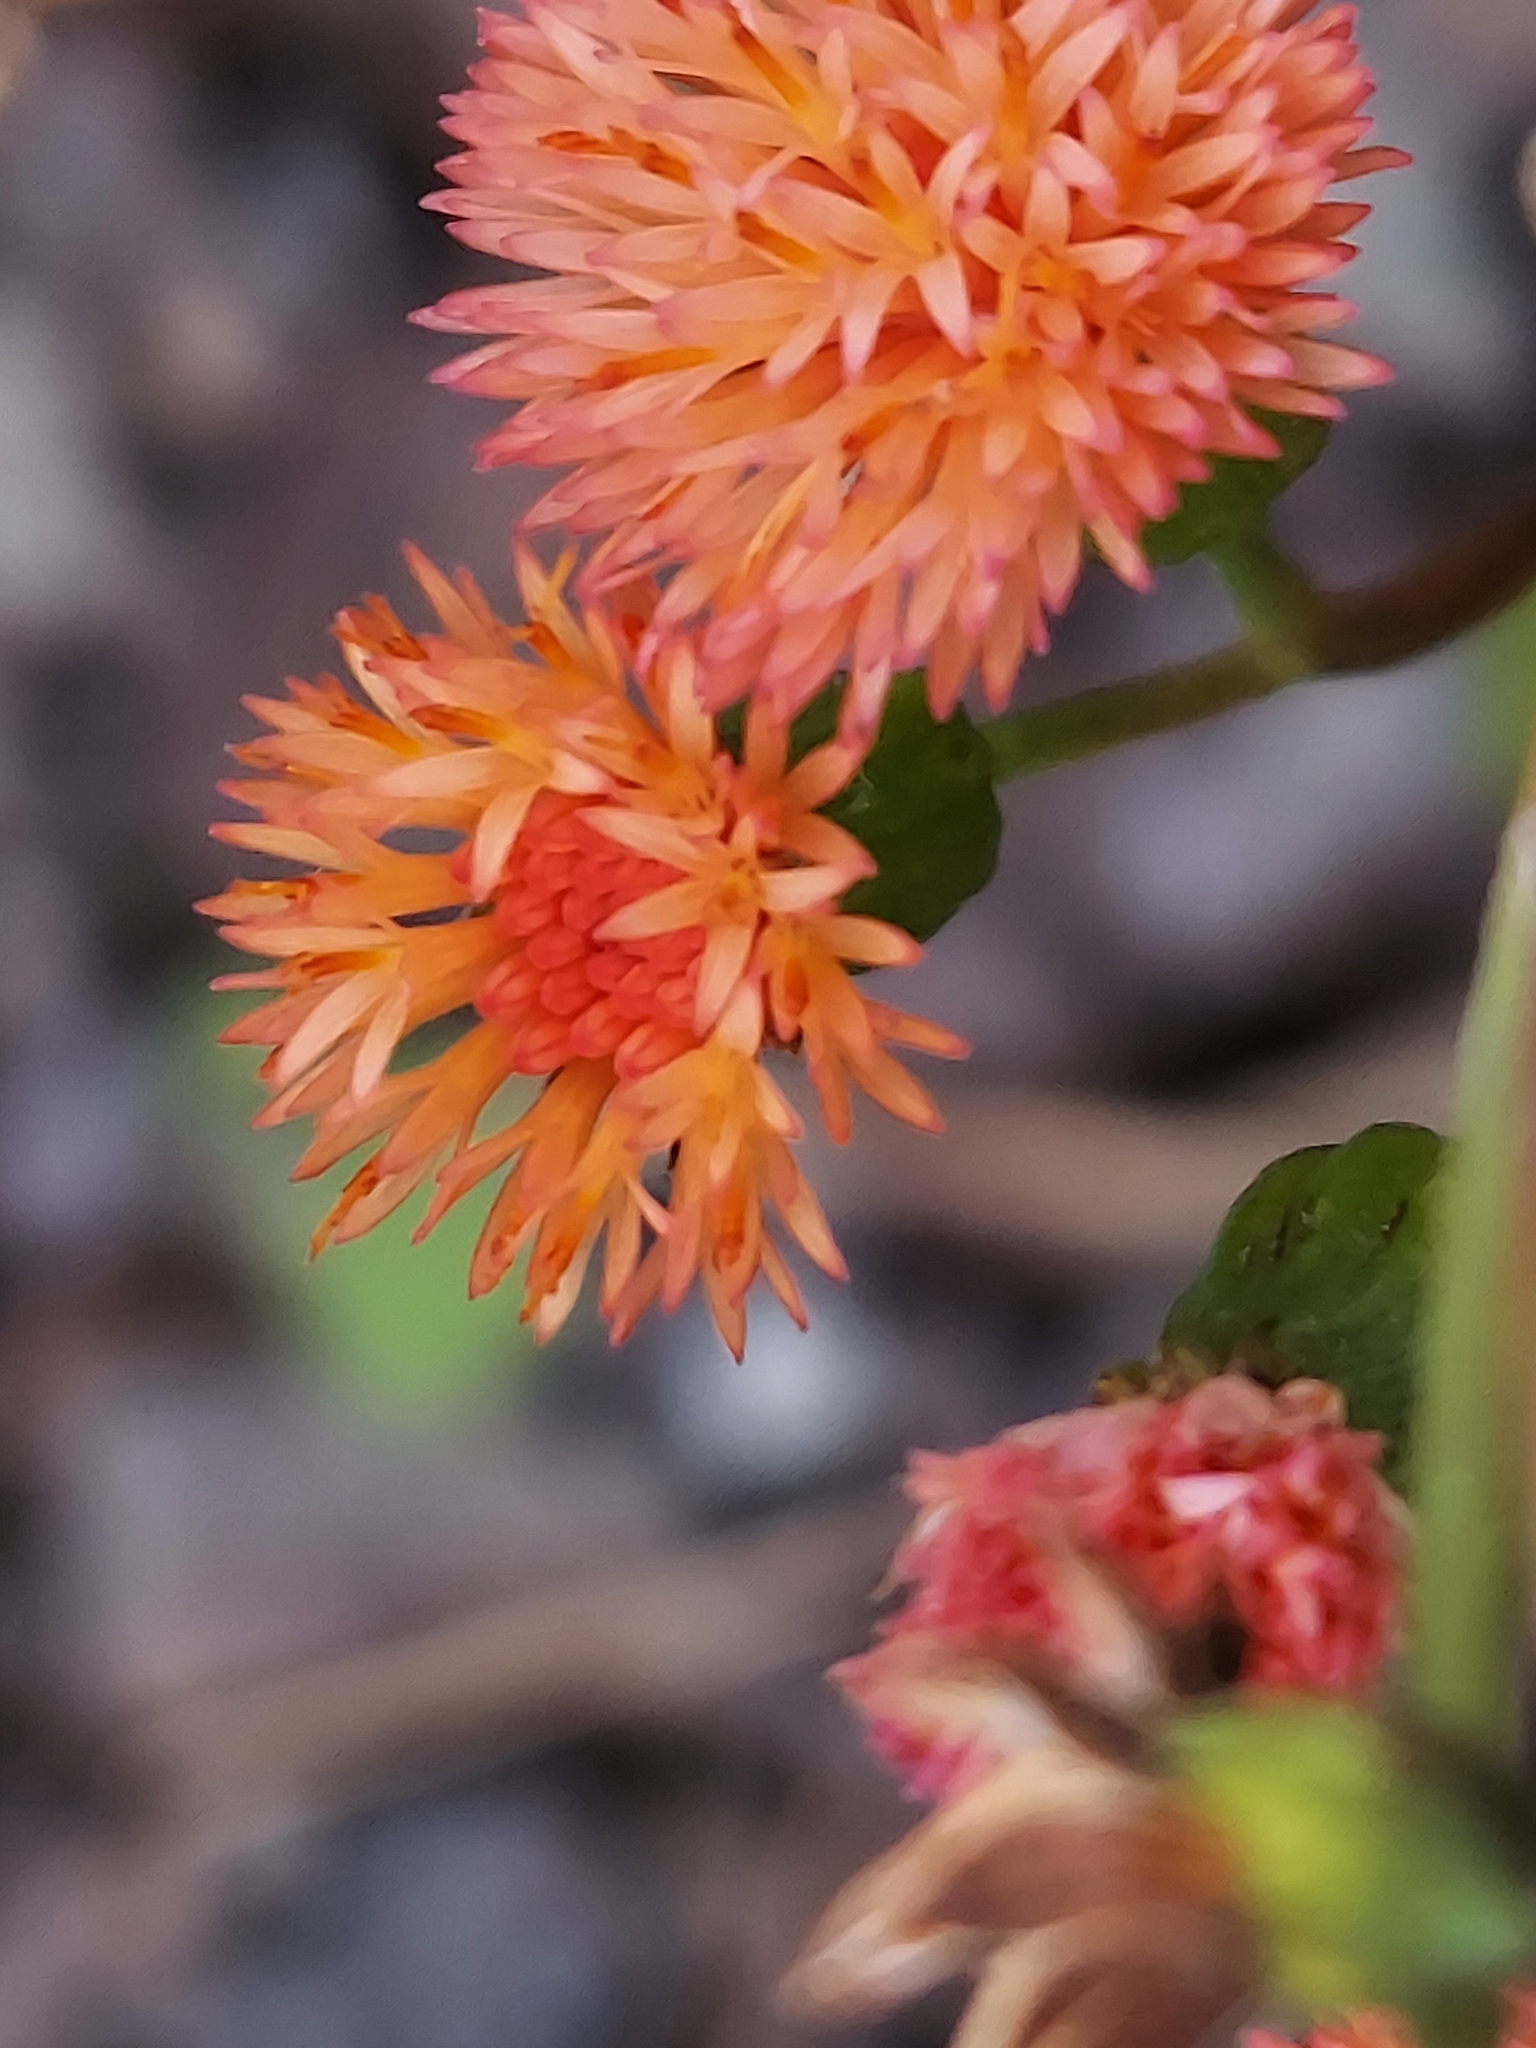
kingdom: Plantae
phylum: Tracheophyta
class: Magnoliopsida
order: Asterales
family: Asteraceae
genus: Emilia
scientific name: Emilia fosbergii
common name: Florida tasselflower
